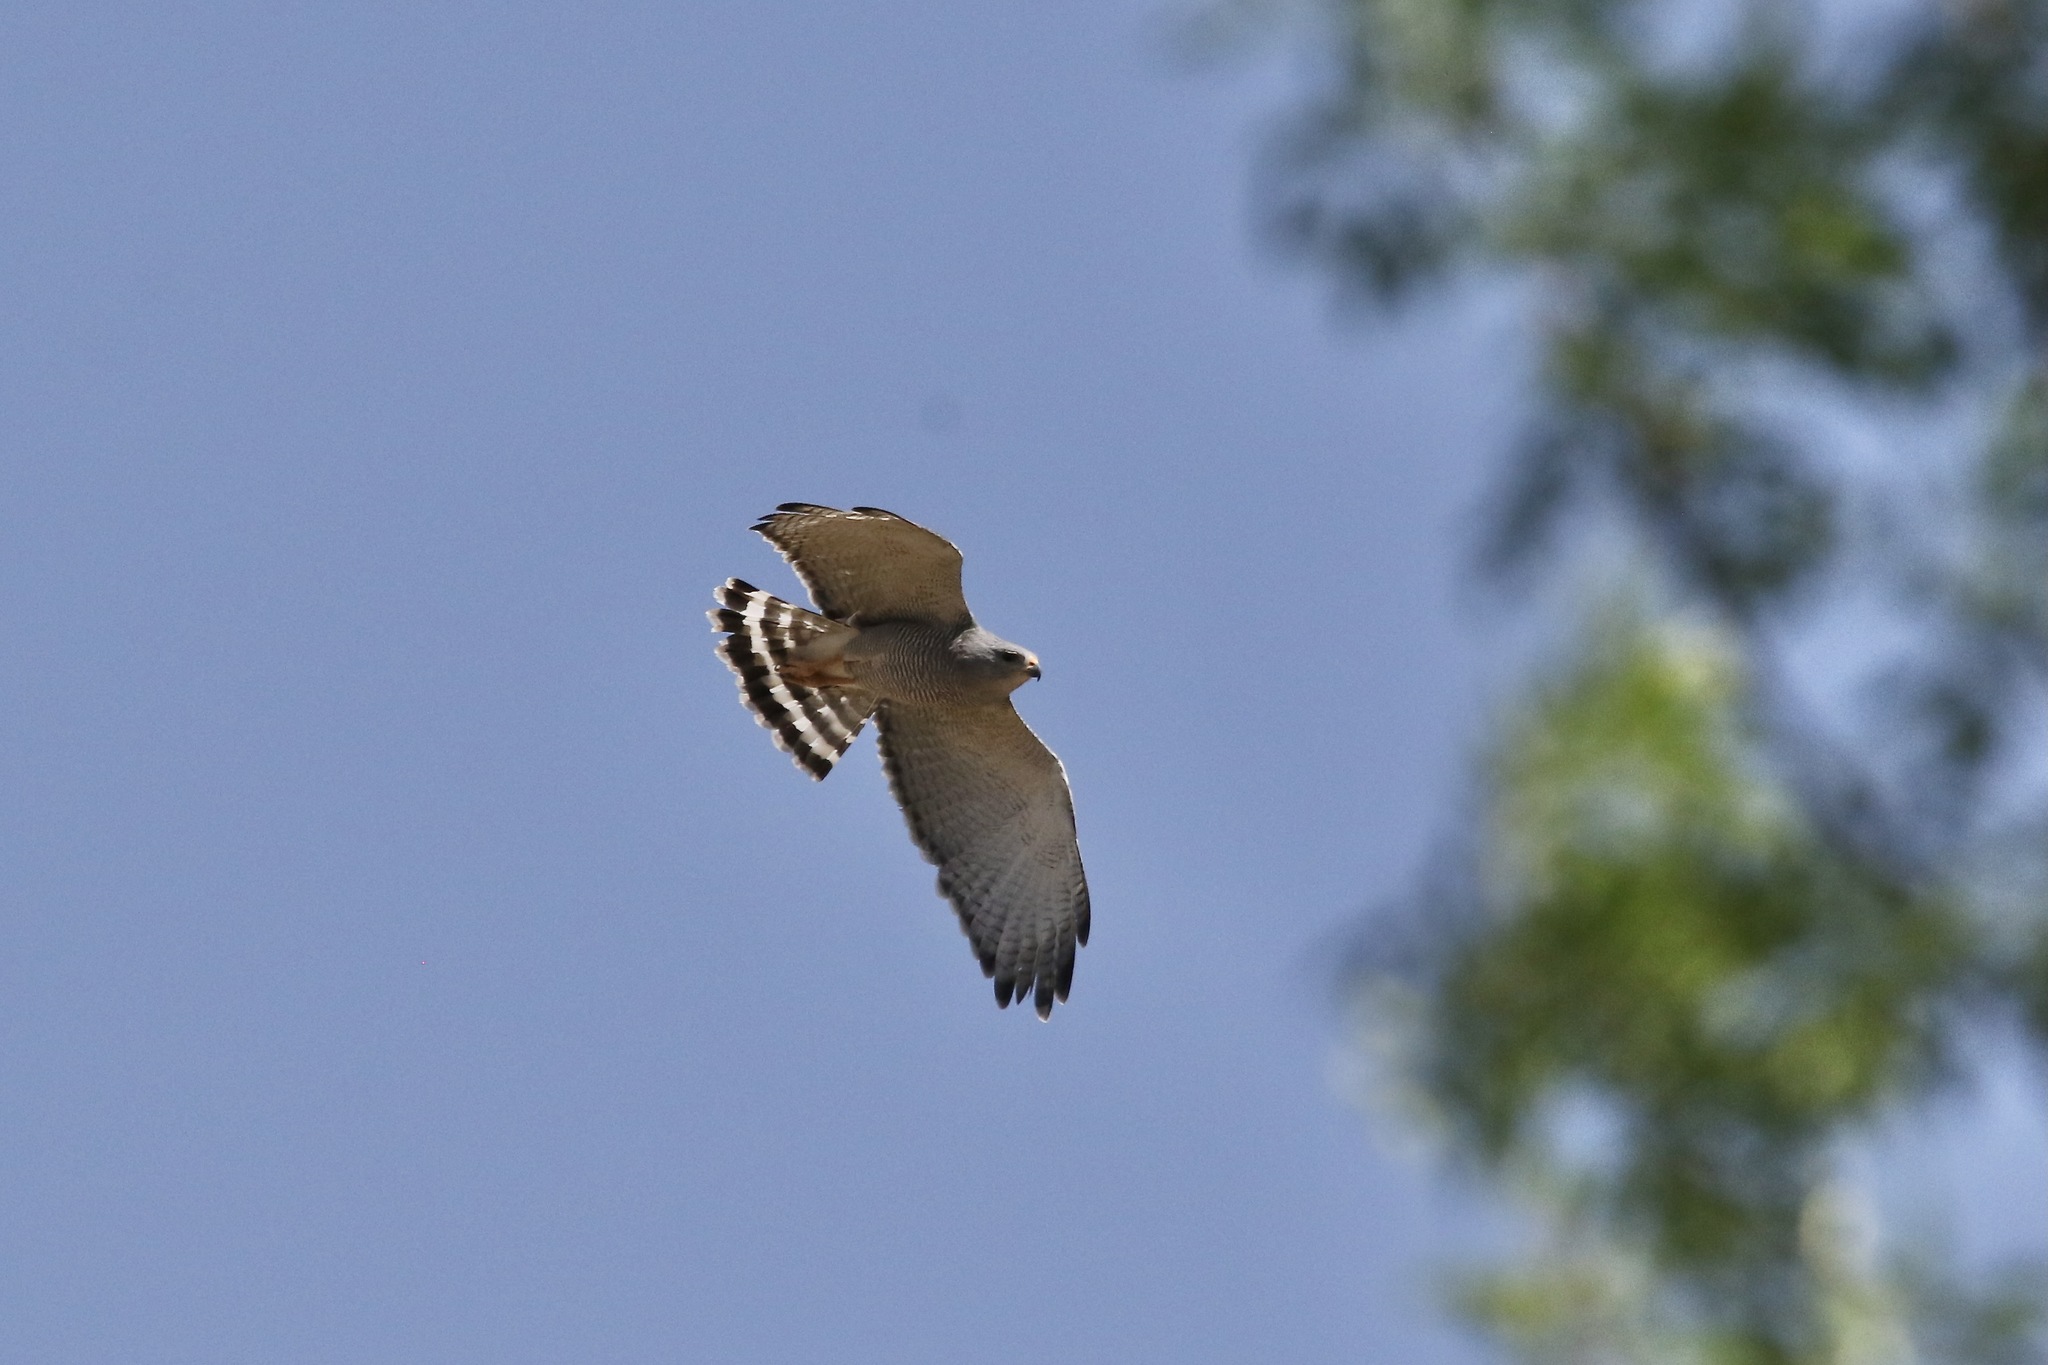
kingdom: Animalia
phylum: Chordata
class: Aves
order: Accipitriformes
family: Accipitridae
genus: Buteo
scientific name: Buteo nitidus
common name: Grey-lined hawk
